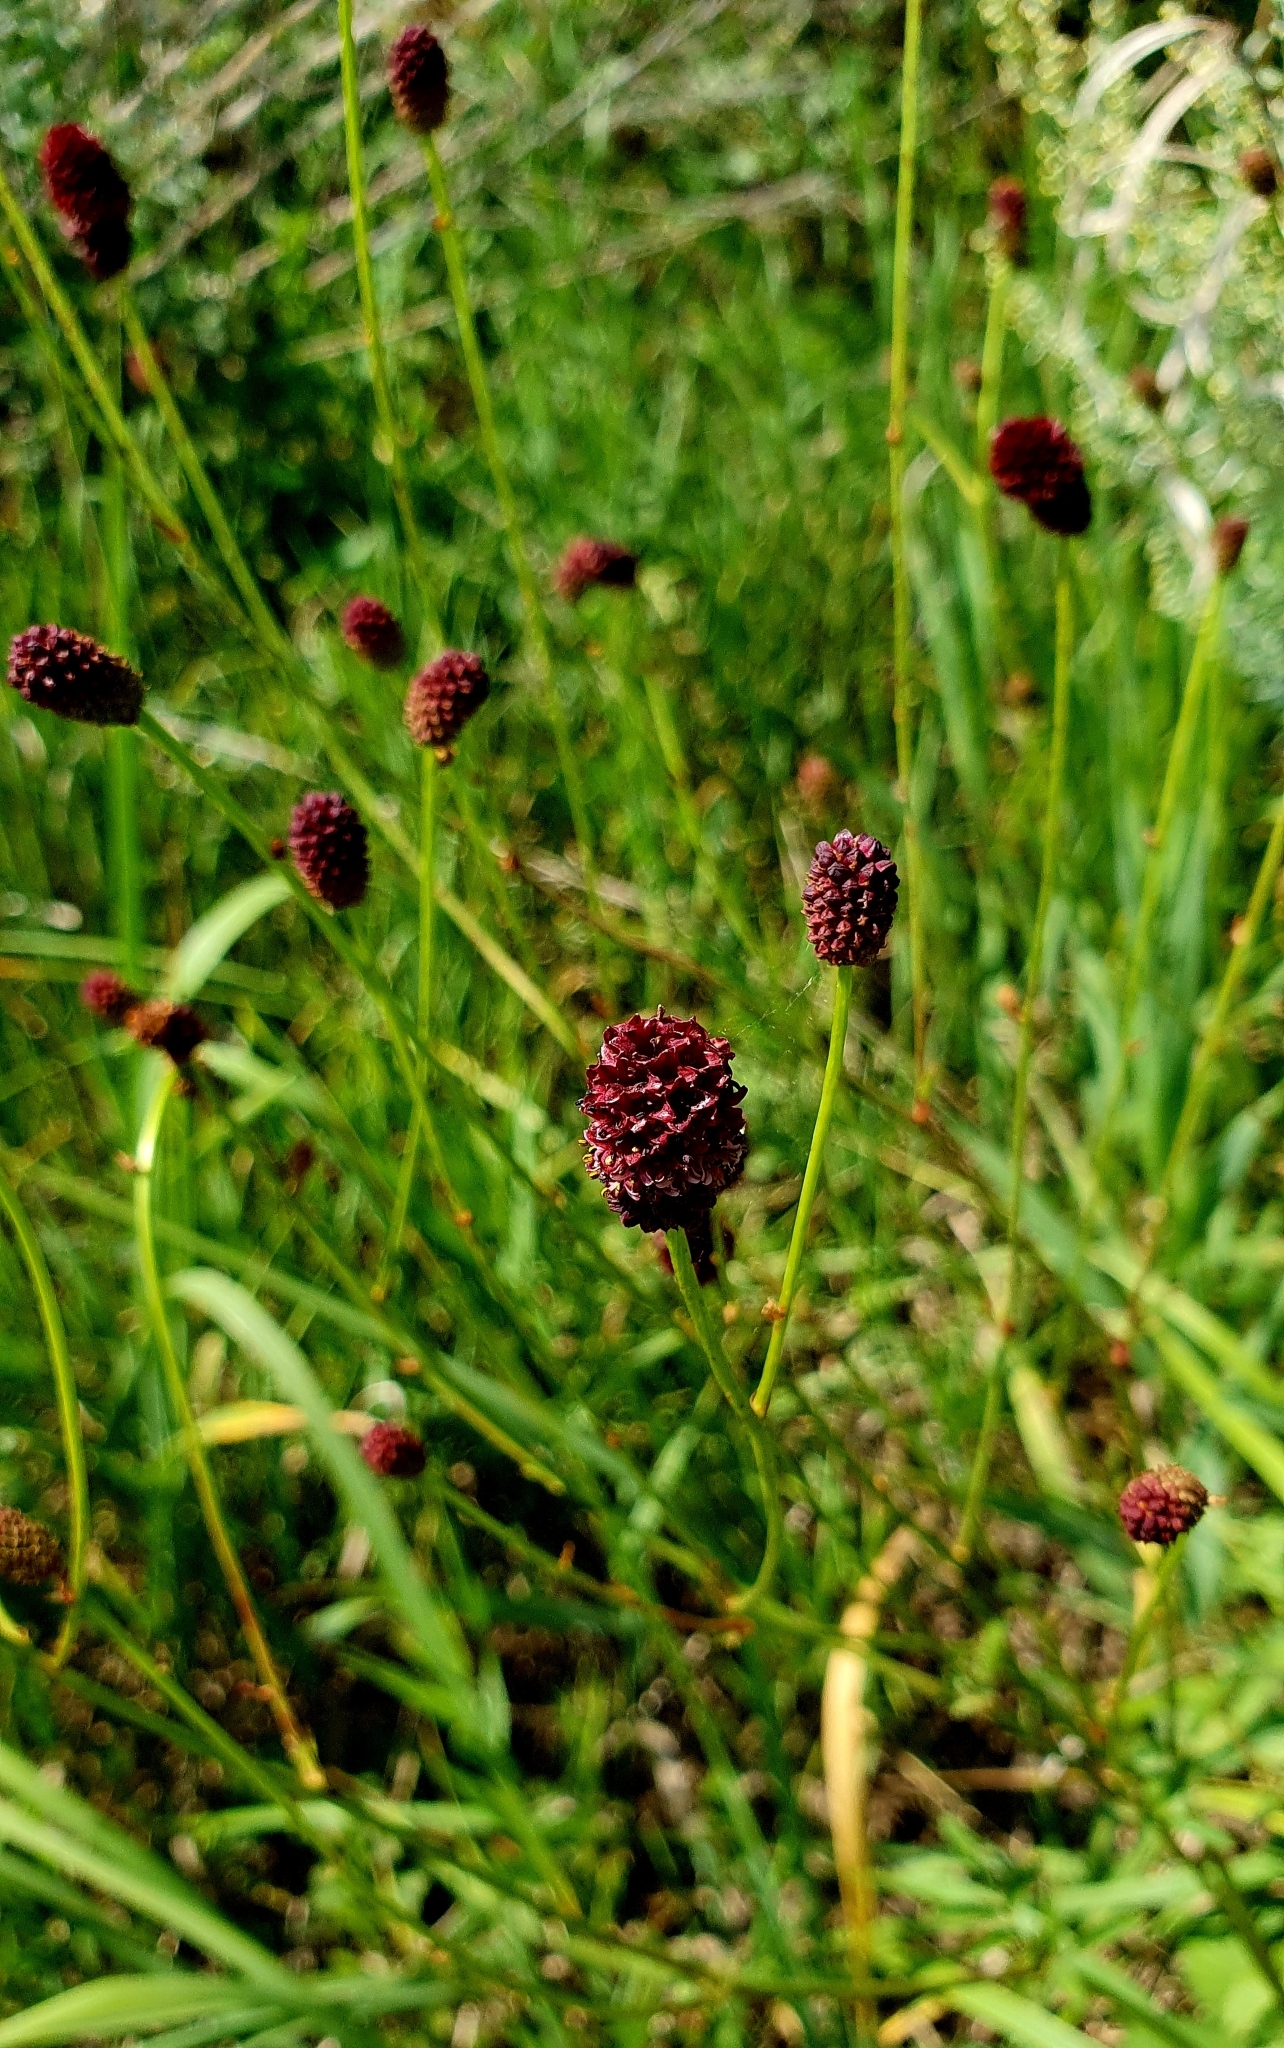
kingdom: Plantae
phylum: Tracheophyta
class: Magnoliopsida
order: Rosales
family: Rosaceae
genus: Sanguisorba
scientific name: Sanguisorba officinalis
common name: Great burnet
